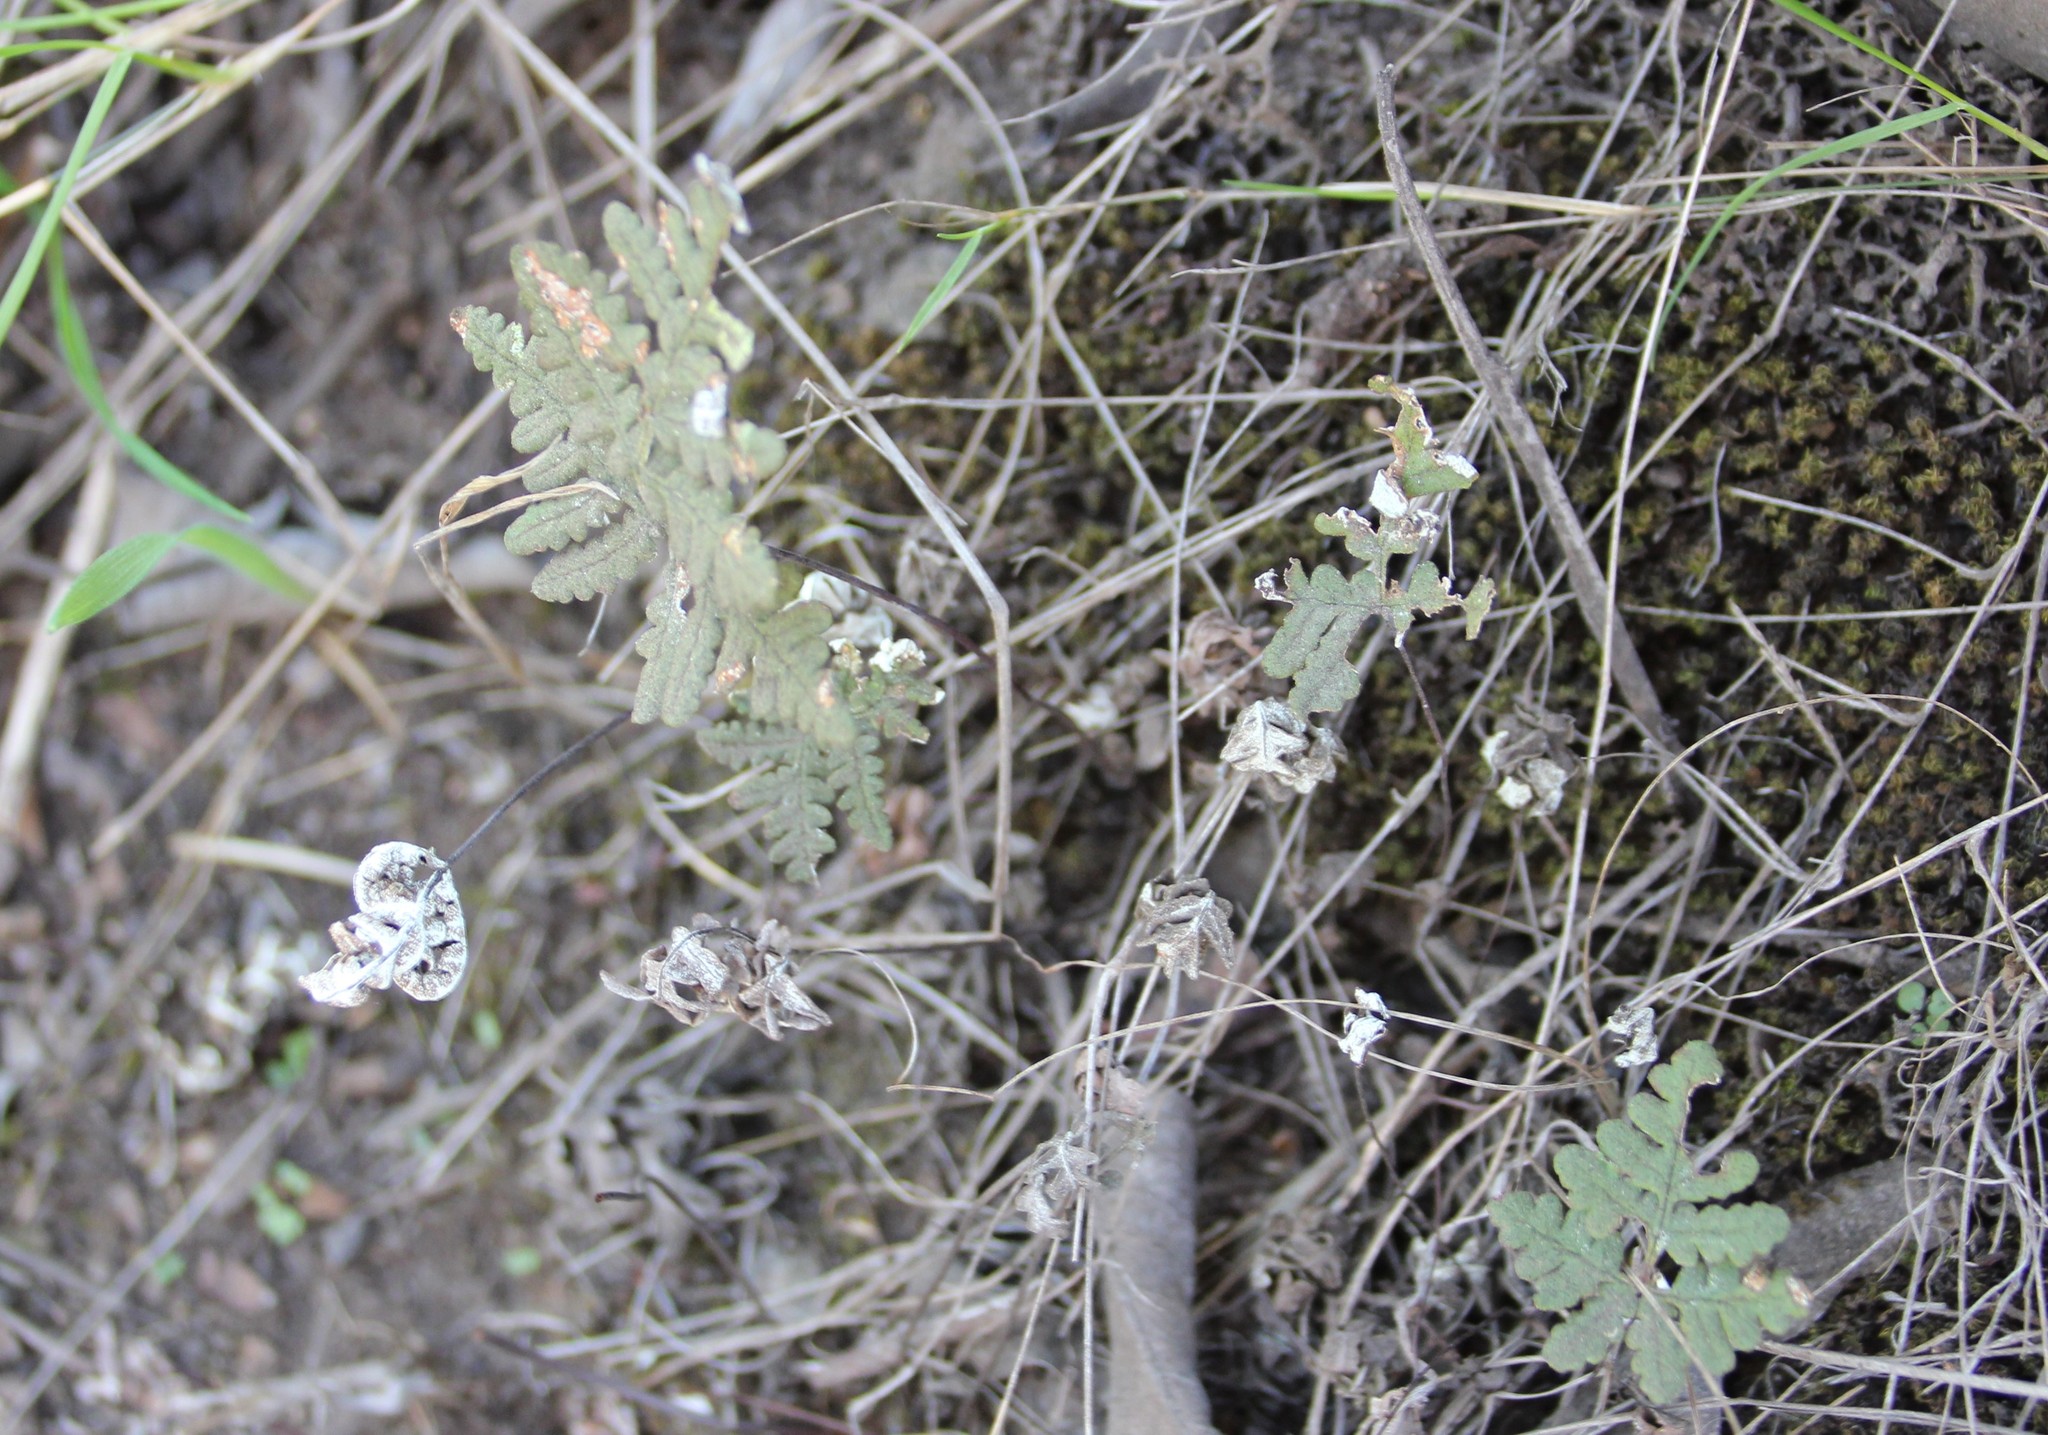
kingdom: Plantae
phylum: Tracheophyta
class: Polypodiopsida
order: Polypodiales
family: Pteridaceae
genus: Pentagramma
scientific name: Pentagramma glanduloviscida
